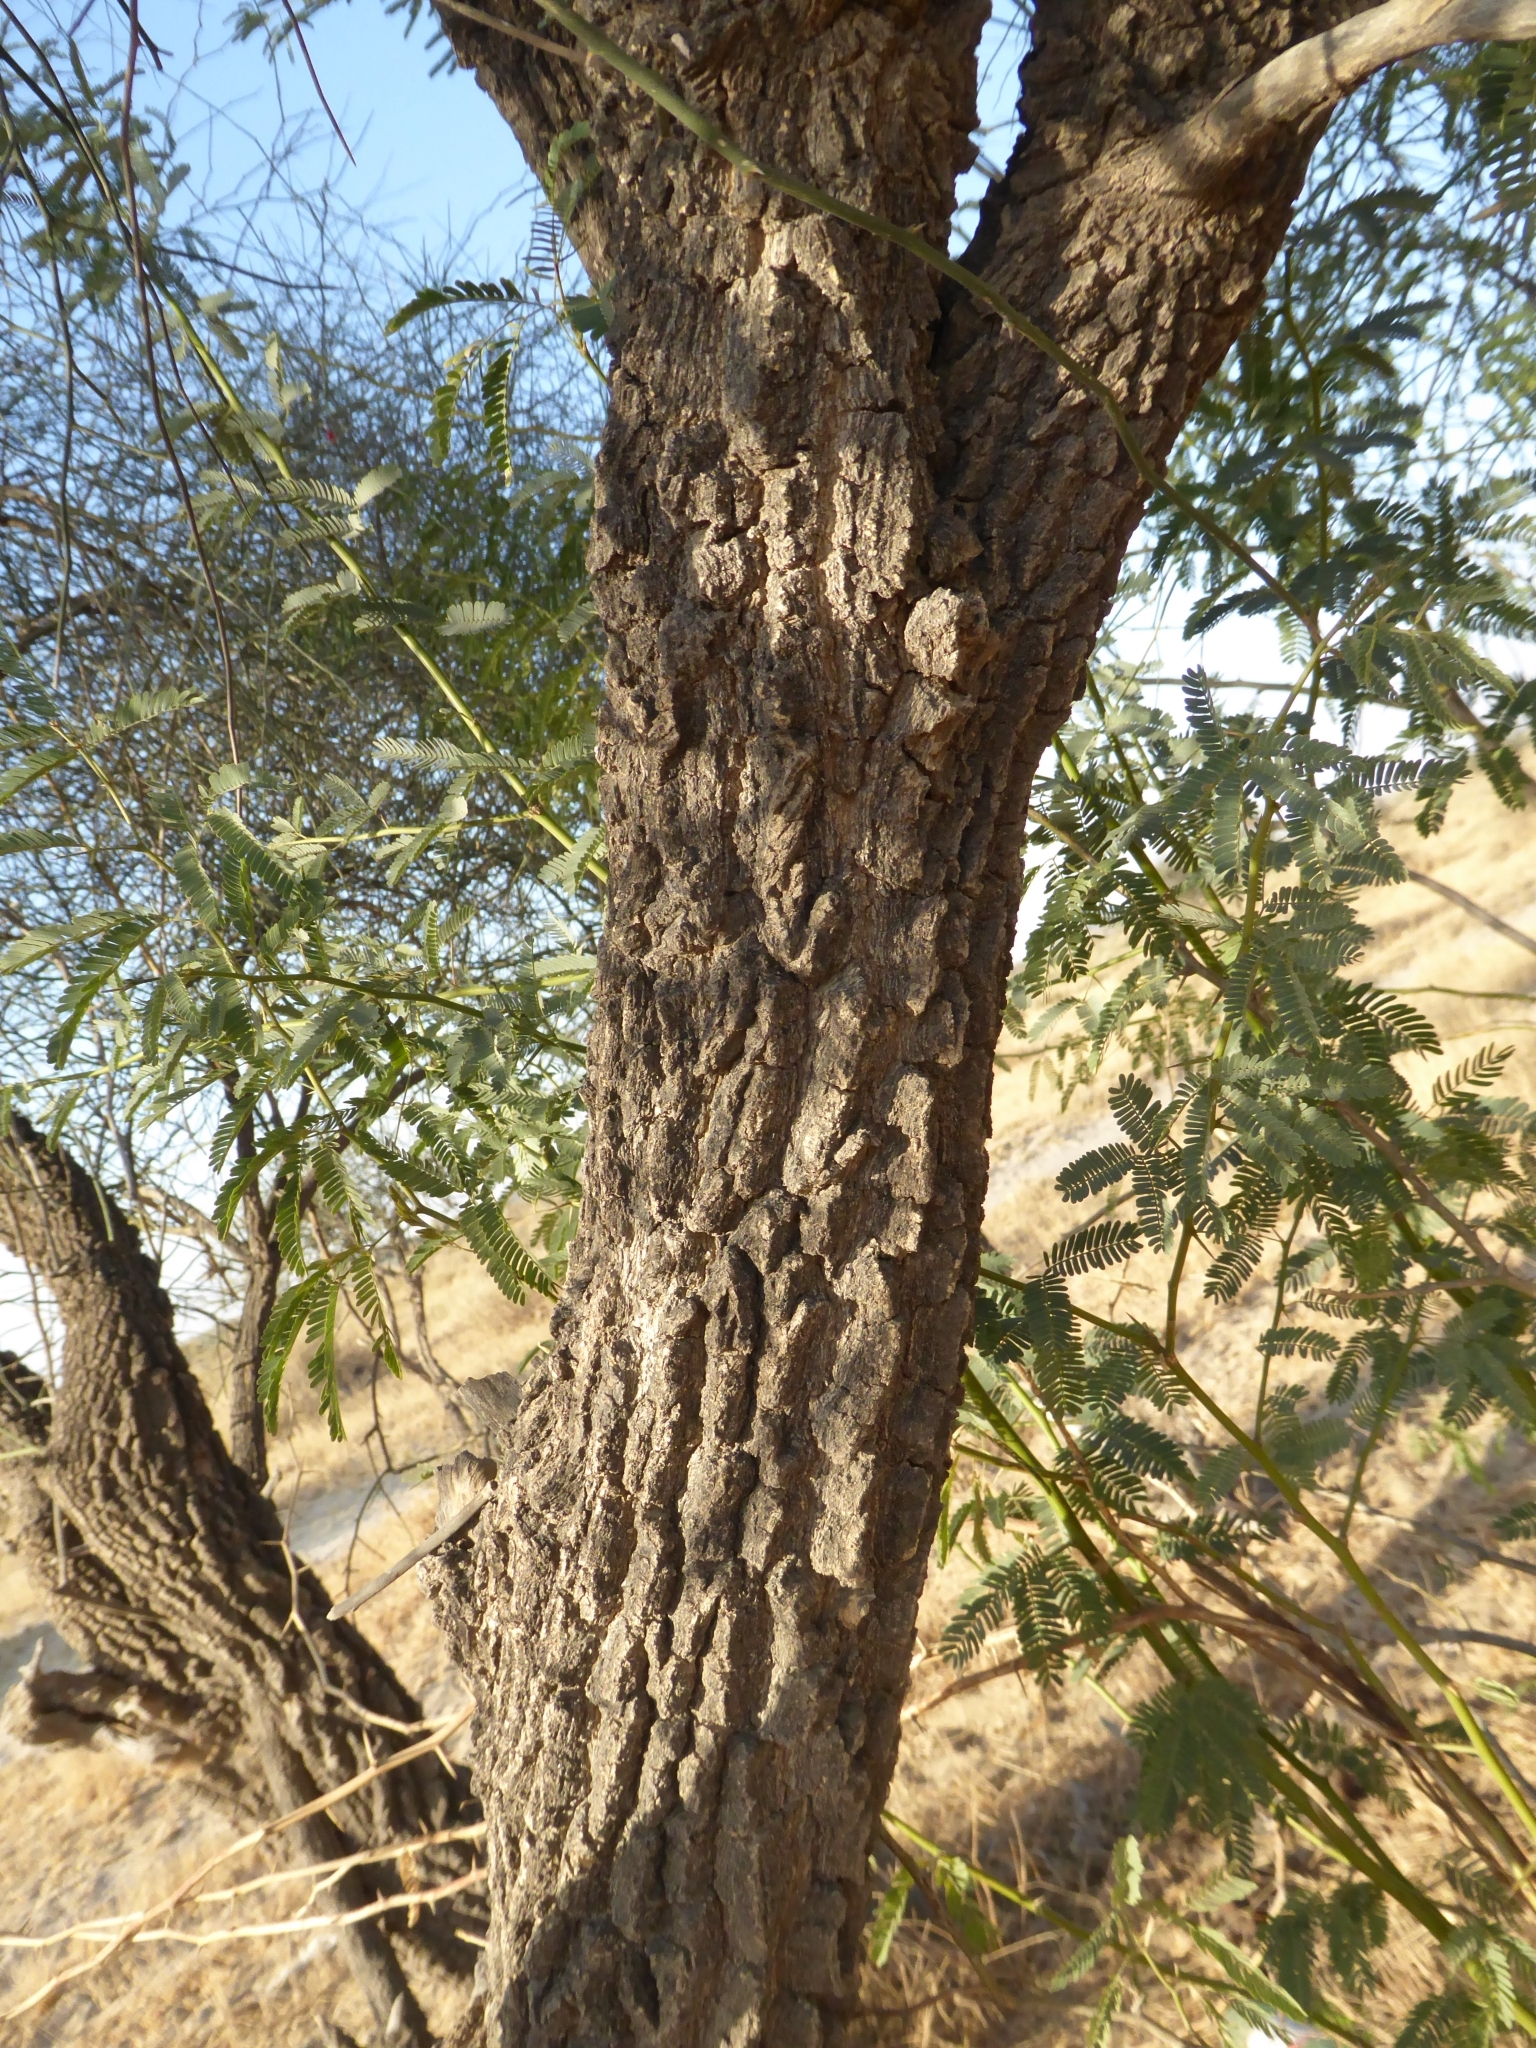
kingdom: Plantae
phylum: Tracheophyta
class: Magnoliopsida
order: Brassicales
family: Capparaceae
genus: Capparis
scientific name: Capparis decidua
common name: Sodada
